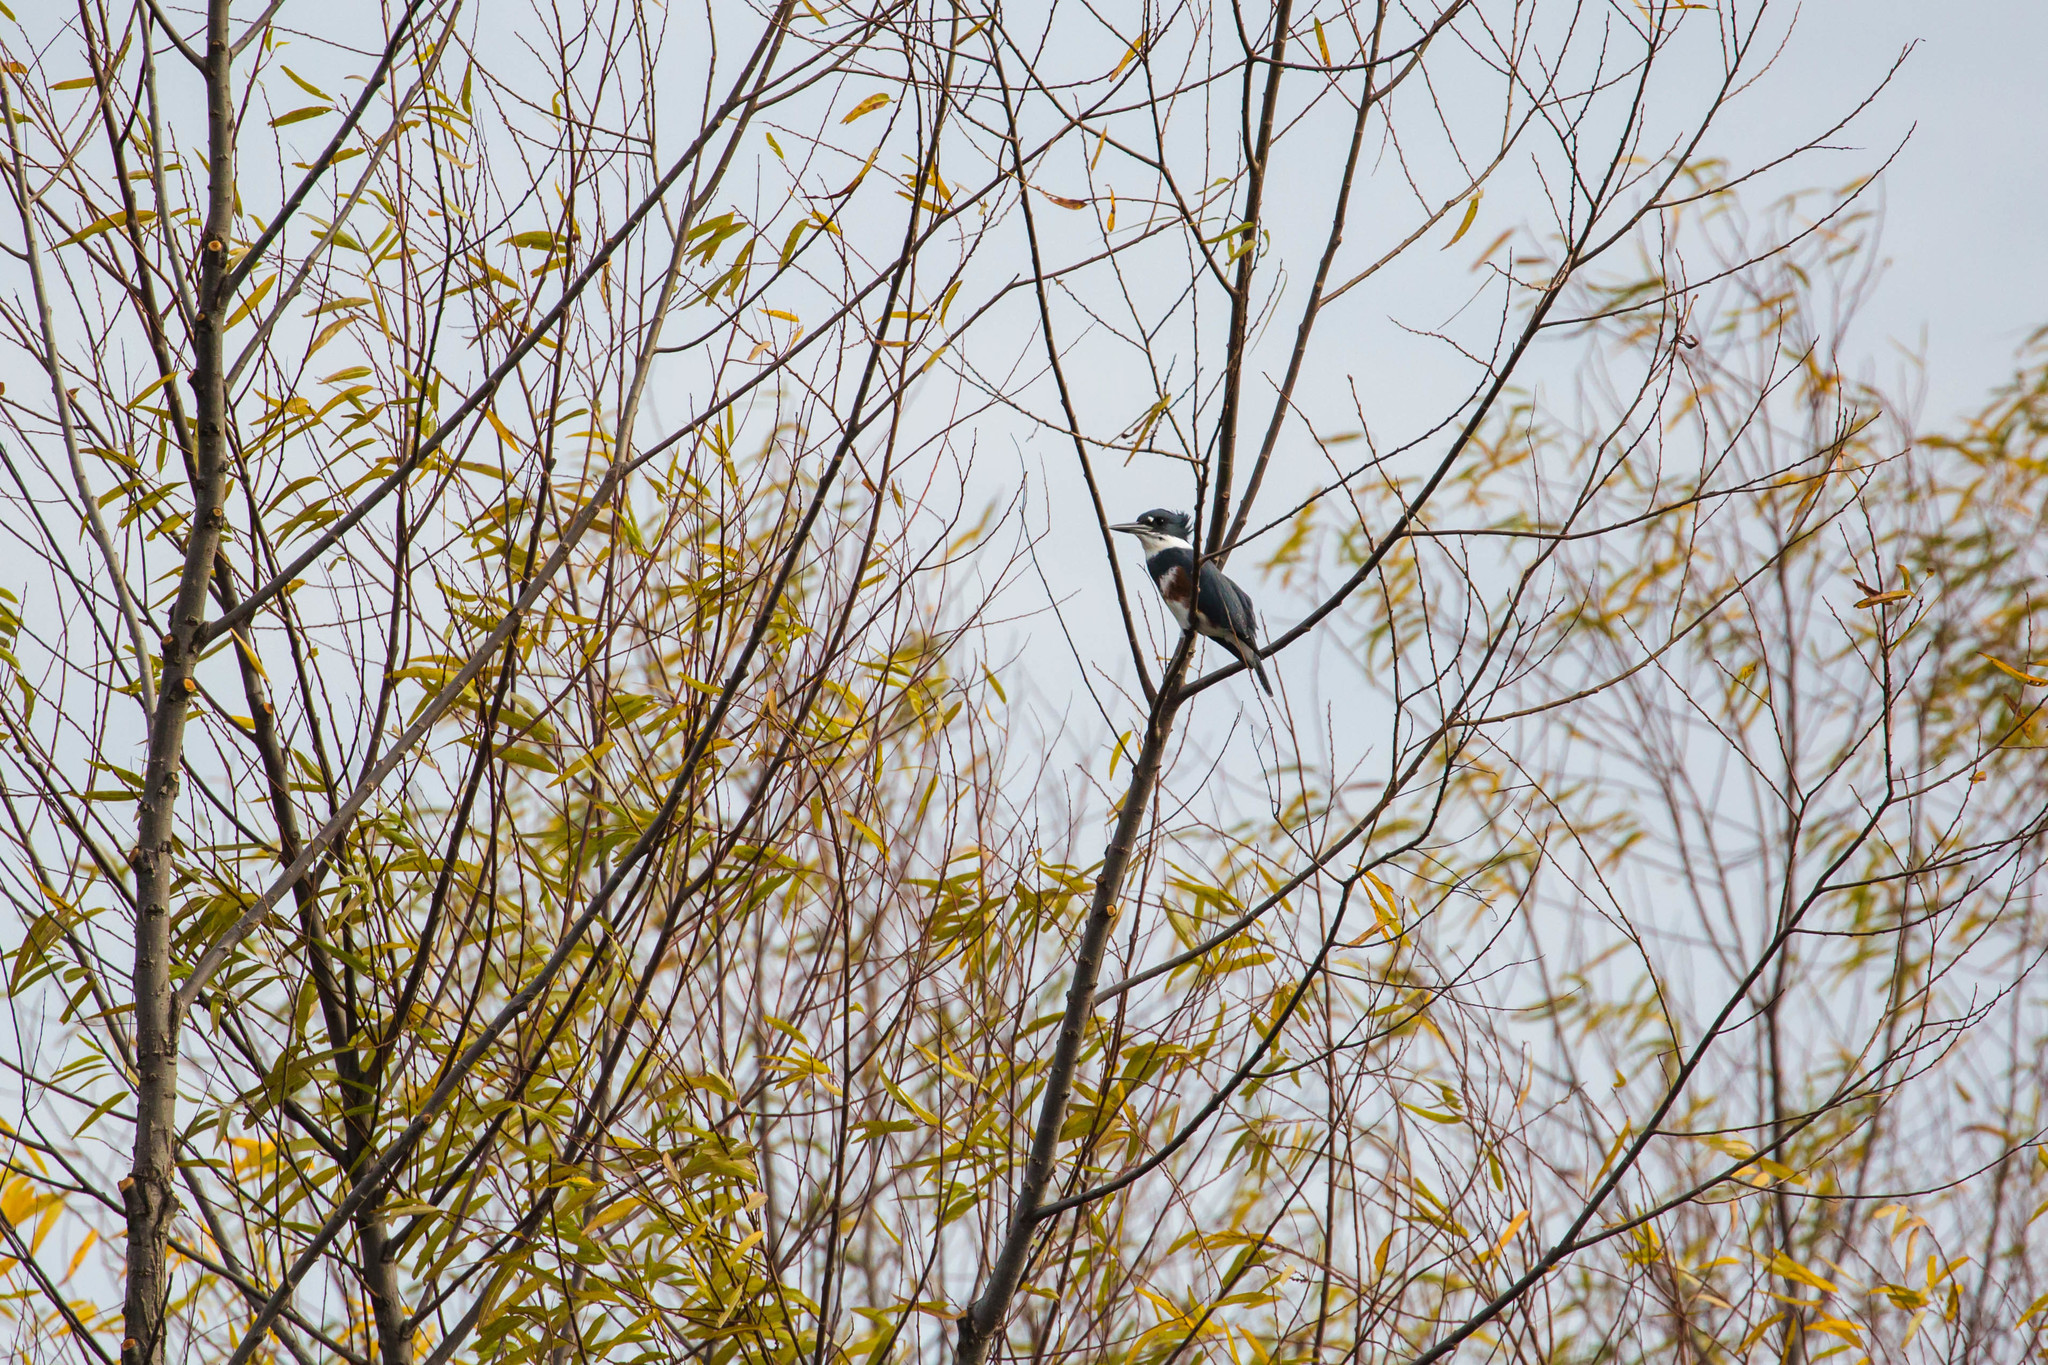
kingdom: Animalia
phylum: Chordata
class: Aves
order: Coraciiformes
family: Alcedinidae
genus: Megaceryle
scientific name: Megaceryle alcyon
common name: Belted kingfisher
